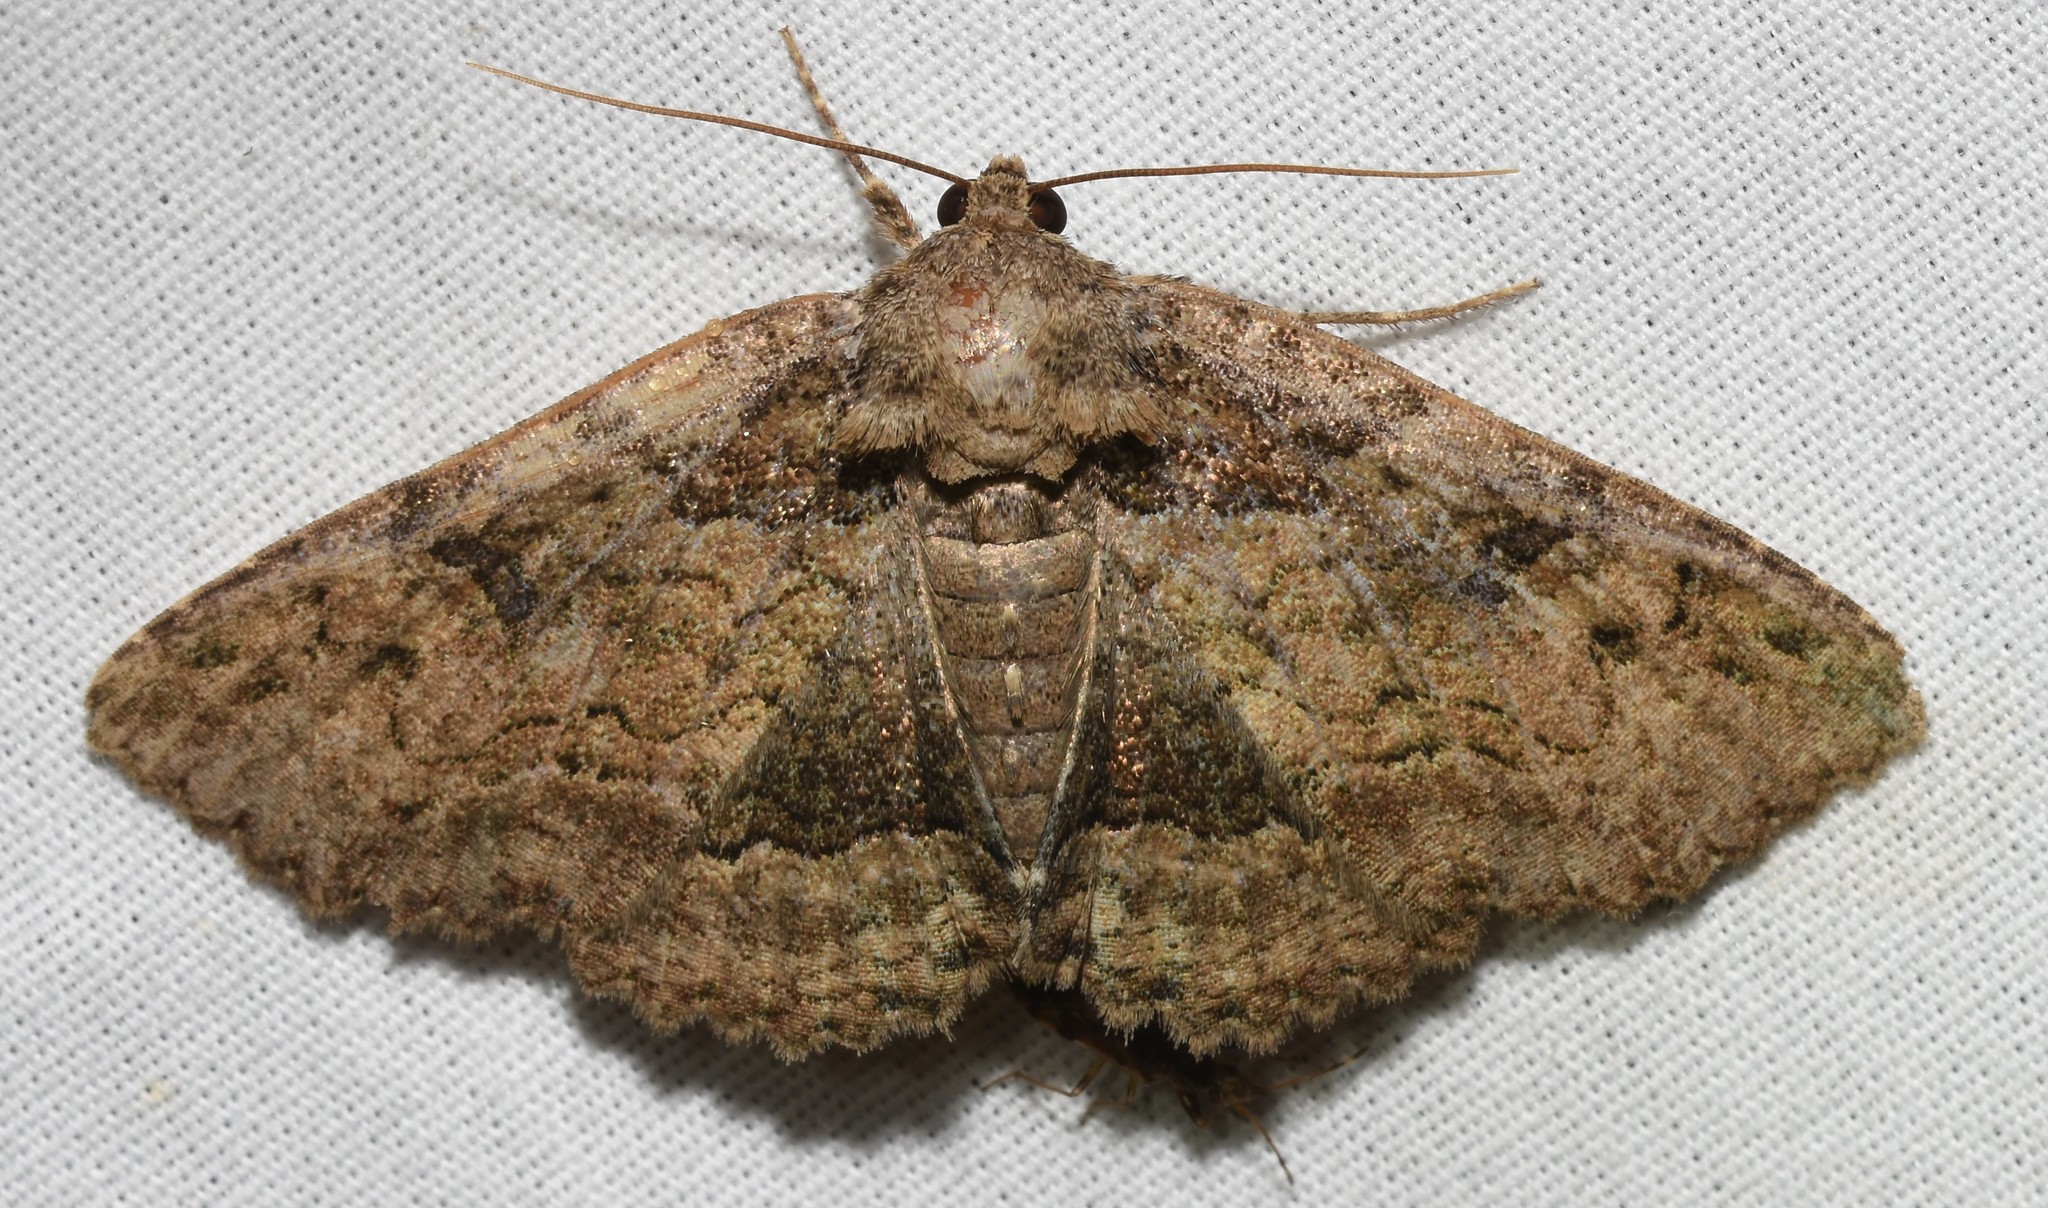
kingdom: Animalia
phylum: Arthropoda
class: Insecta
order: Lepidoptera
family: Erebidae
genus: Zale
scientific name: Zale galbanata
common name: Maple zale
